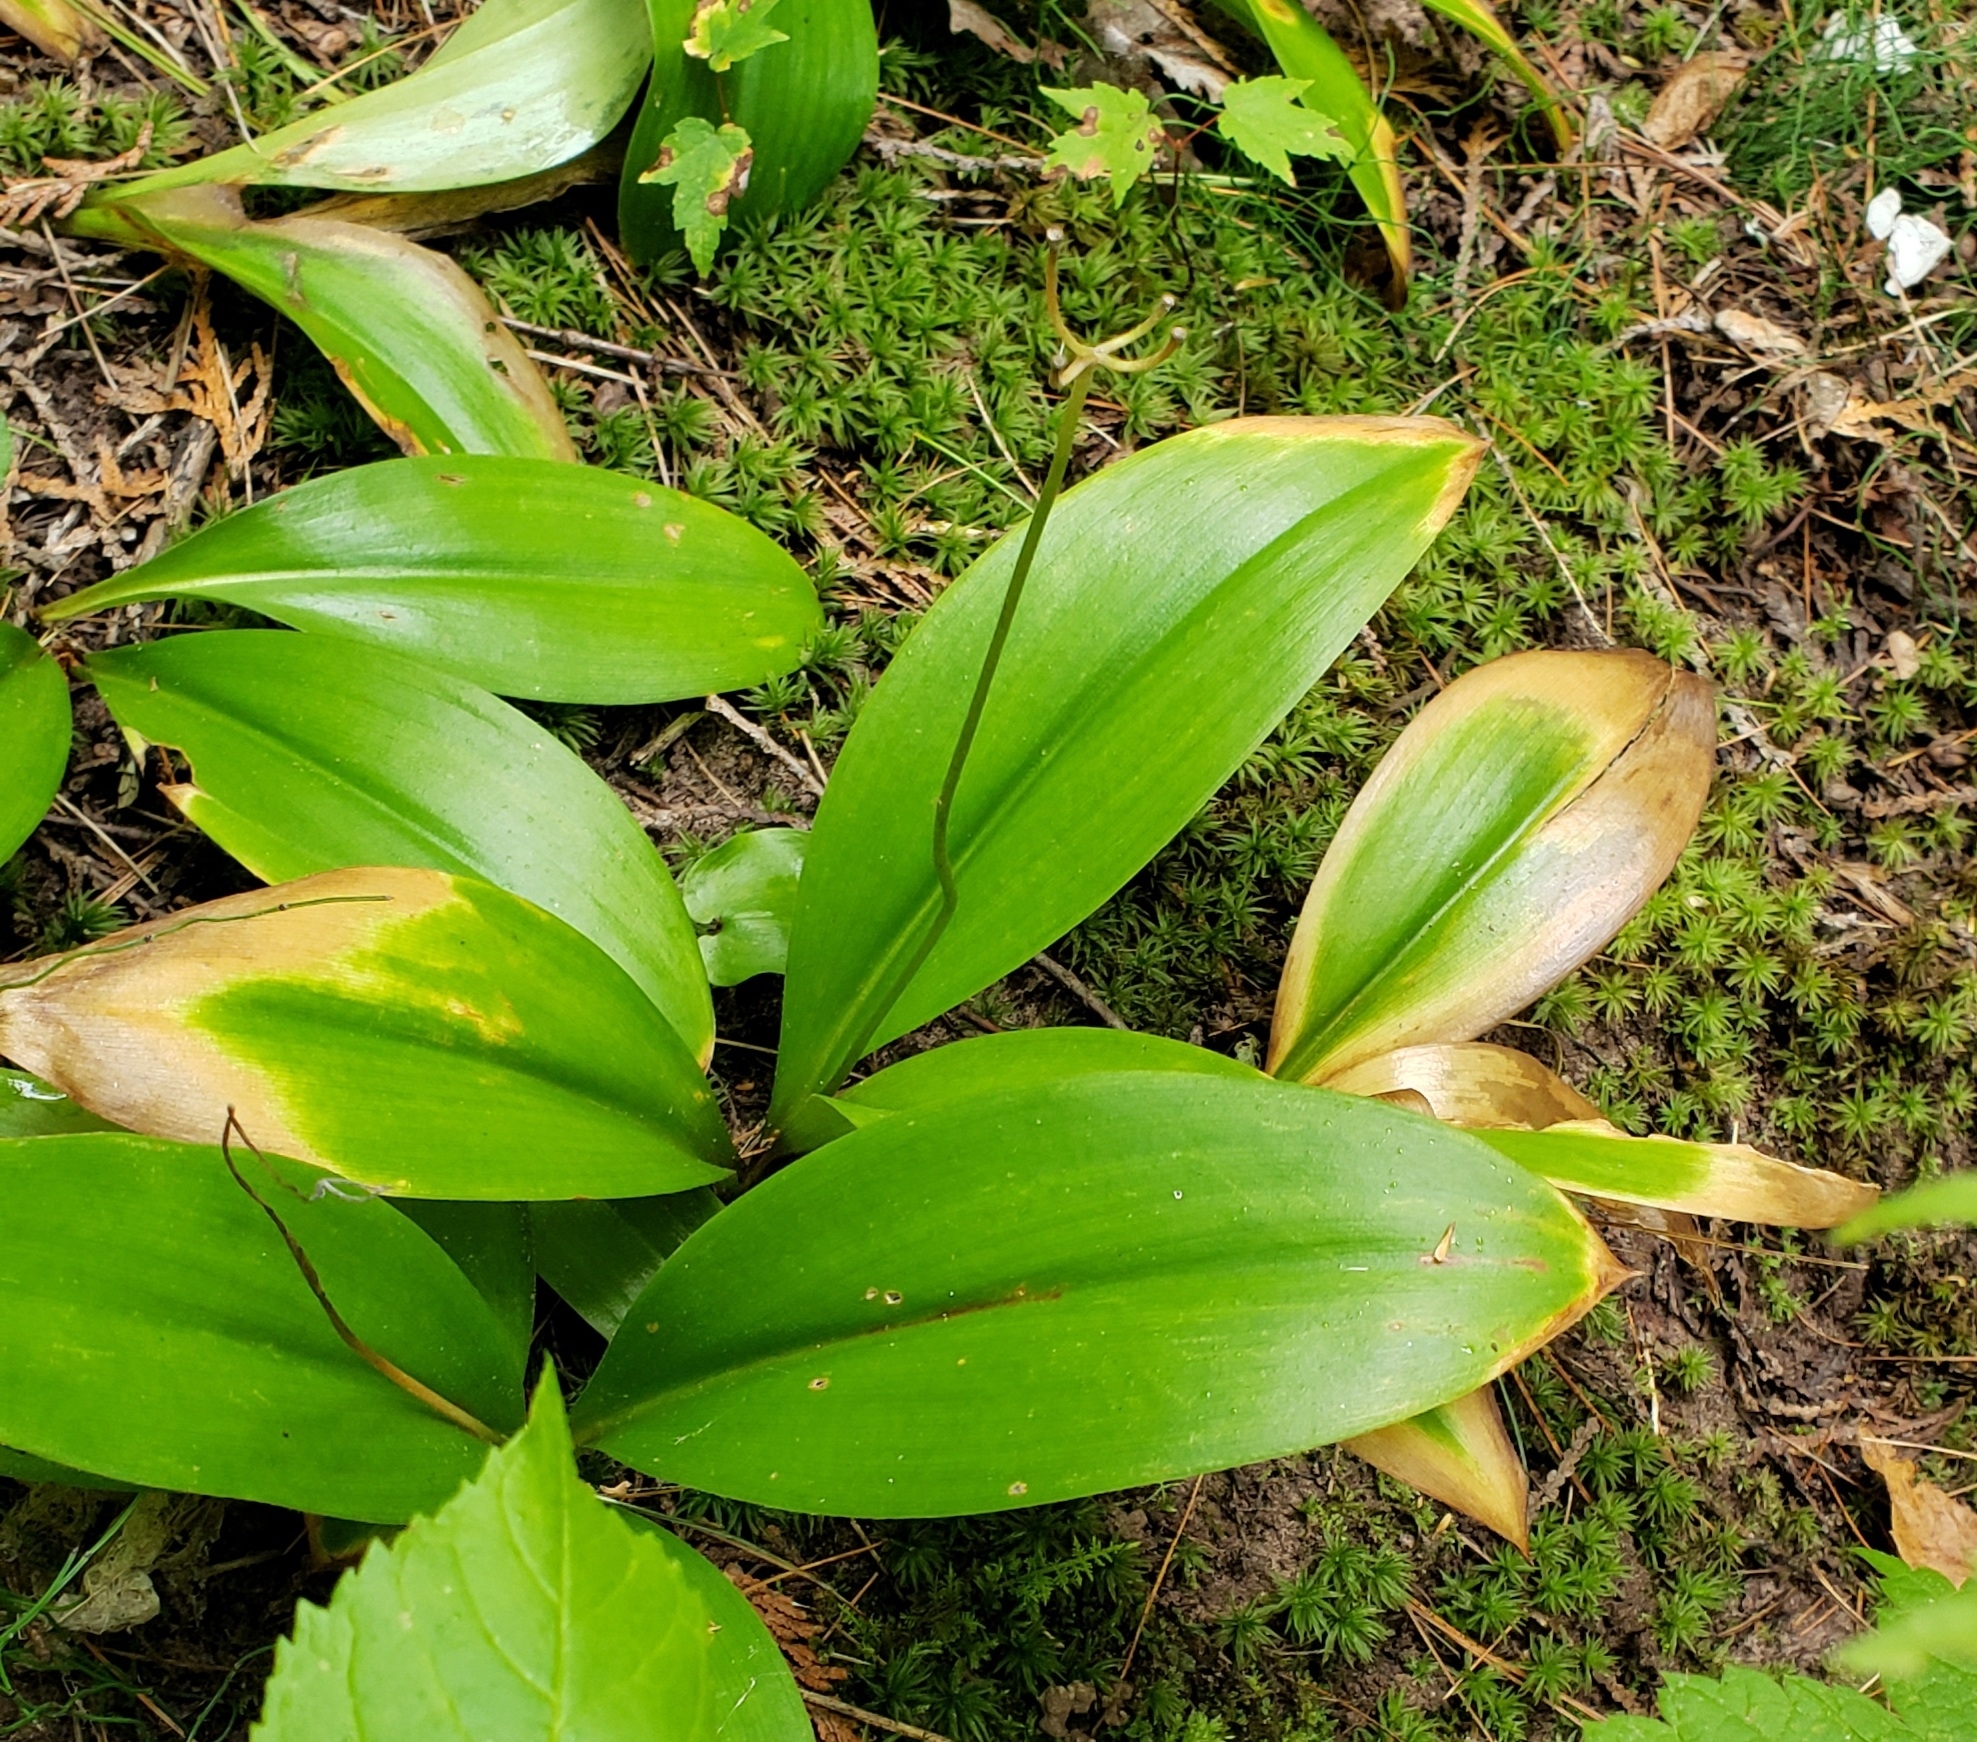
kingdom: Plantae
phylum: Tracheophyta
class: Liliopsida
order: Liliales
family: Liliaceae
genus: Clintonia
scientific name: Clintonia borealis
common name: Yellow clintonia
